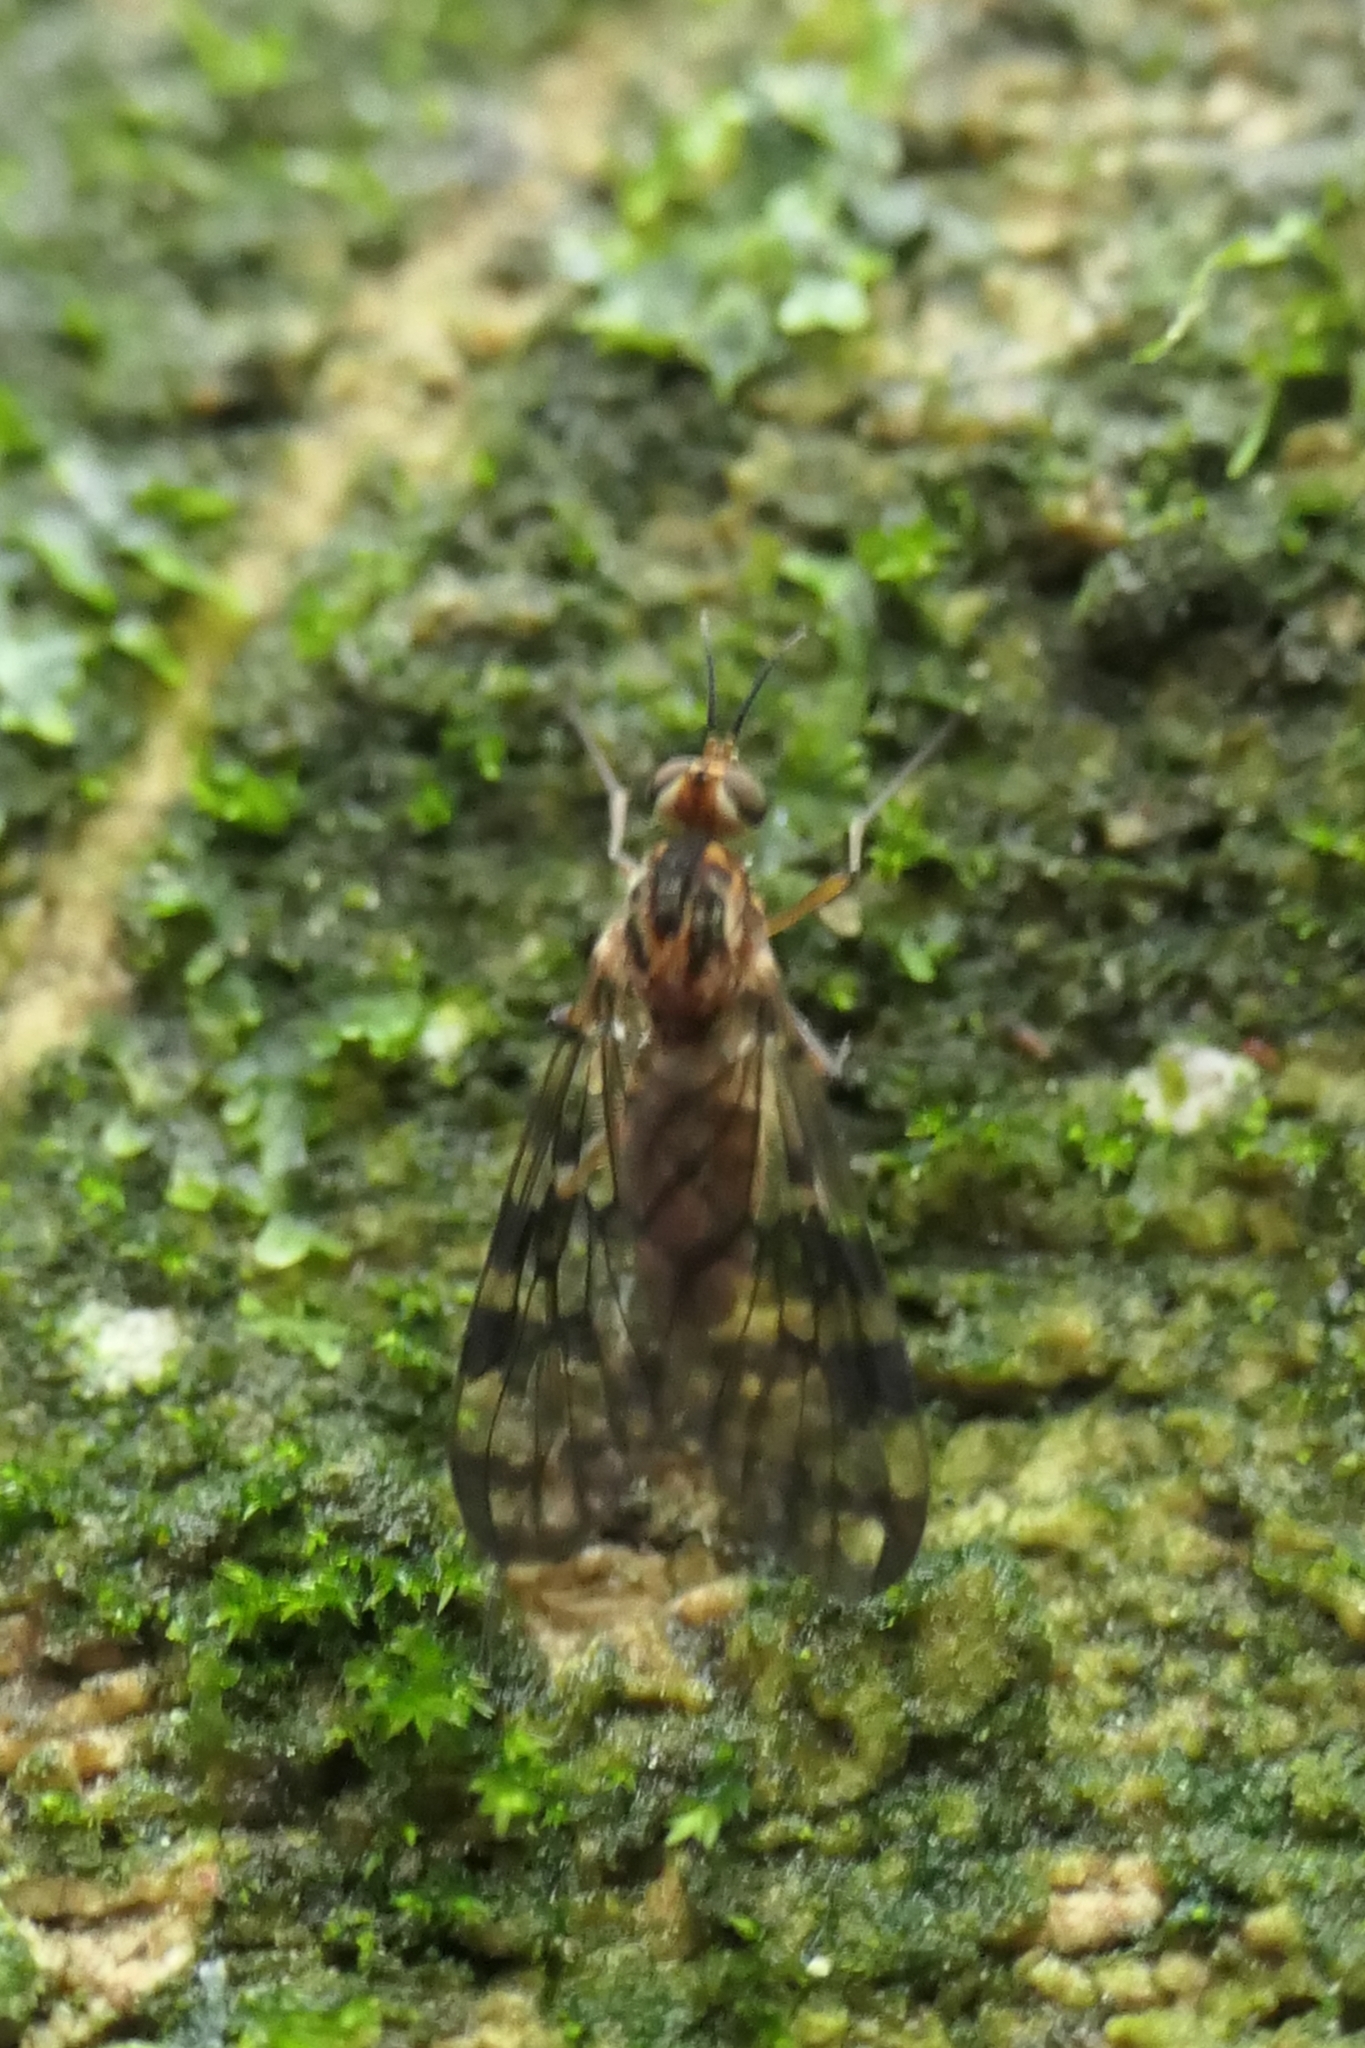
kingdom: Animalia
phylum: Arthropoda
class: Insecta
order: Diptera
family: Anisopodidae
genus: Sylvicola
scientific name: Sylvicola dubius
